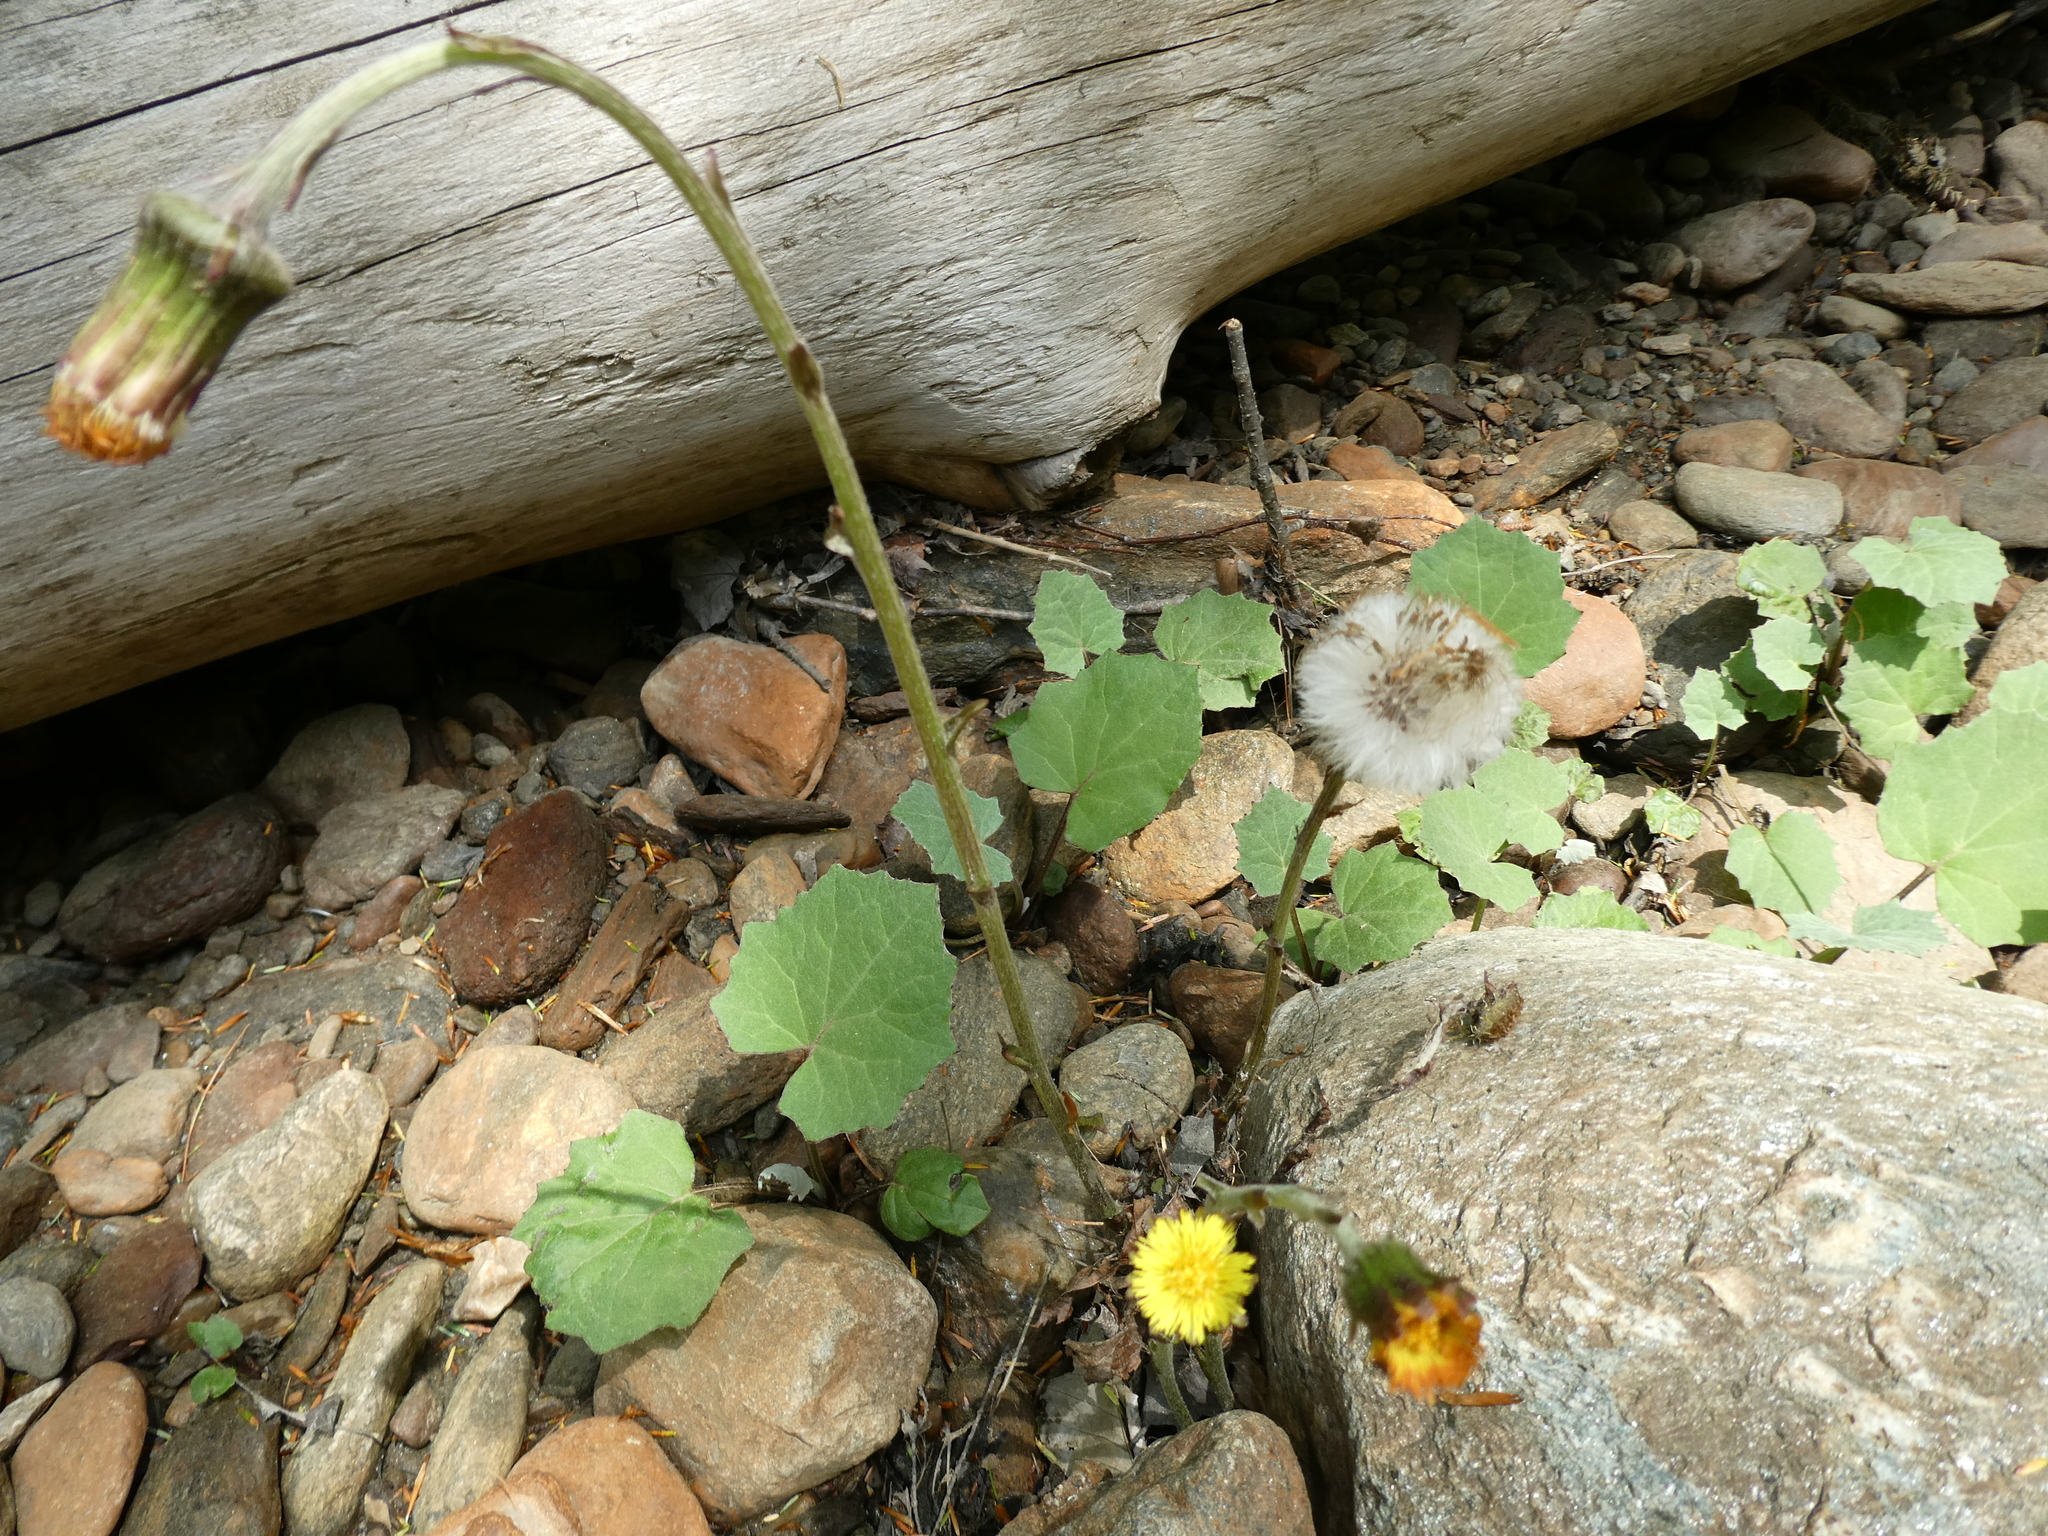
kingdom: Plantae
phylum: Tracheophyta
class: Magnoliopsida
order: Asterales
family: Asteraceae
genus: Tussilago
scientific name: Tussilago farfara
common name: Coltsfoot
